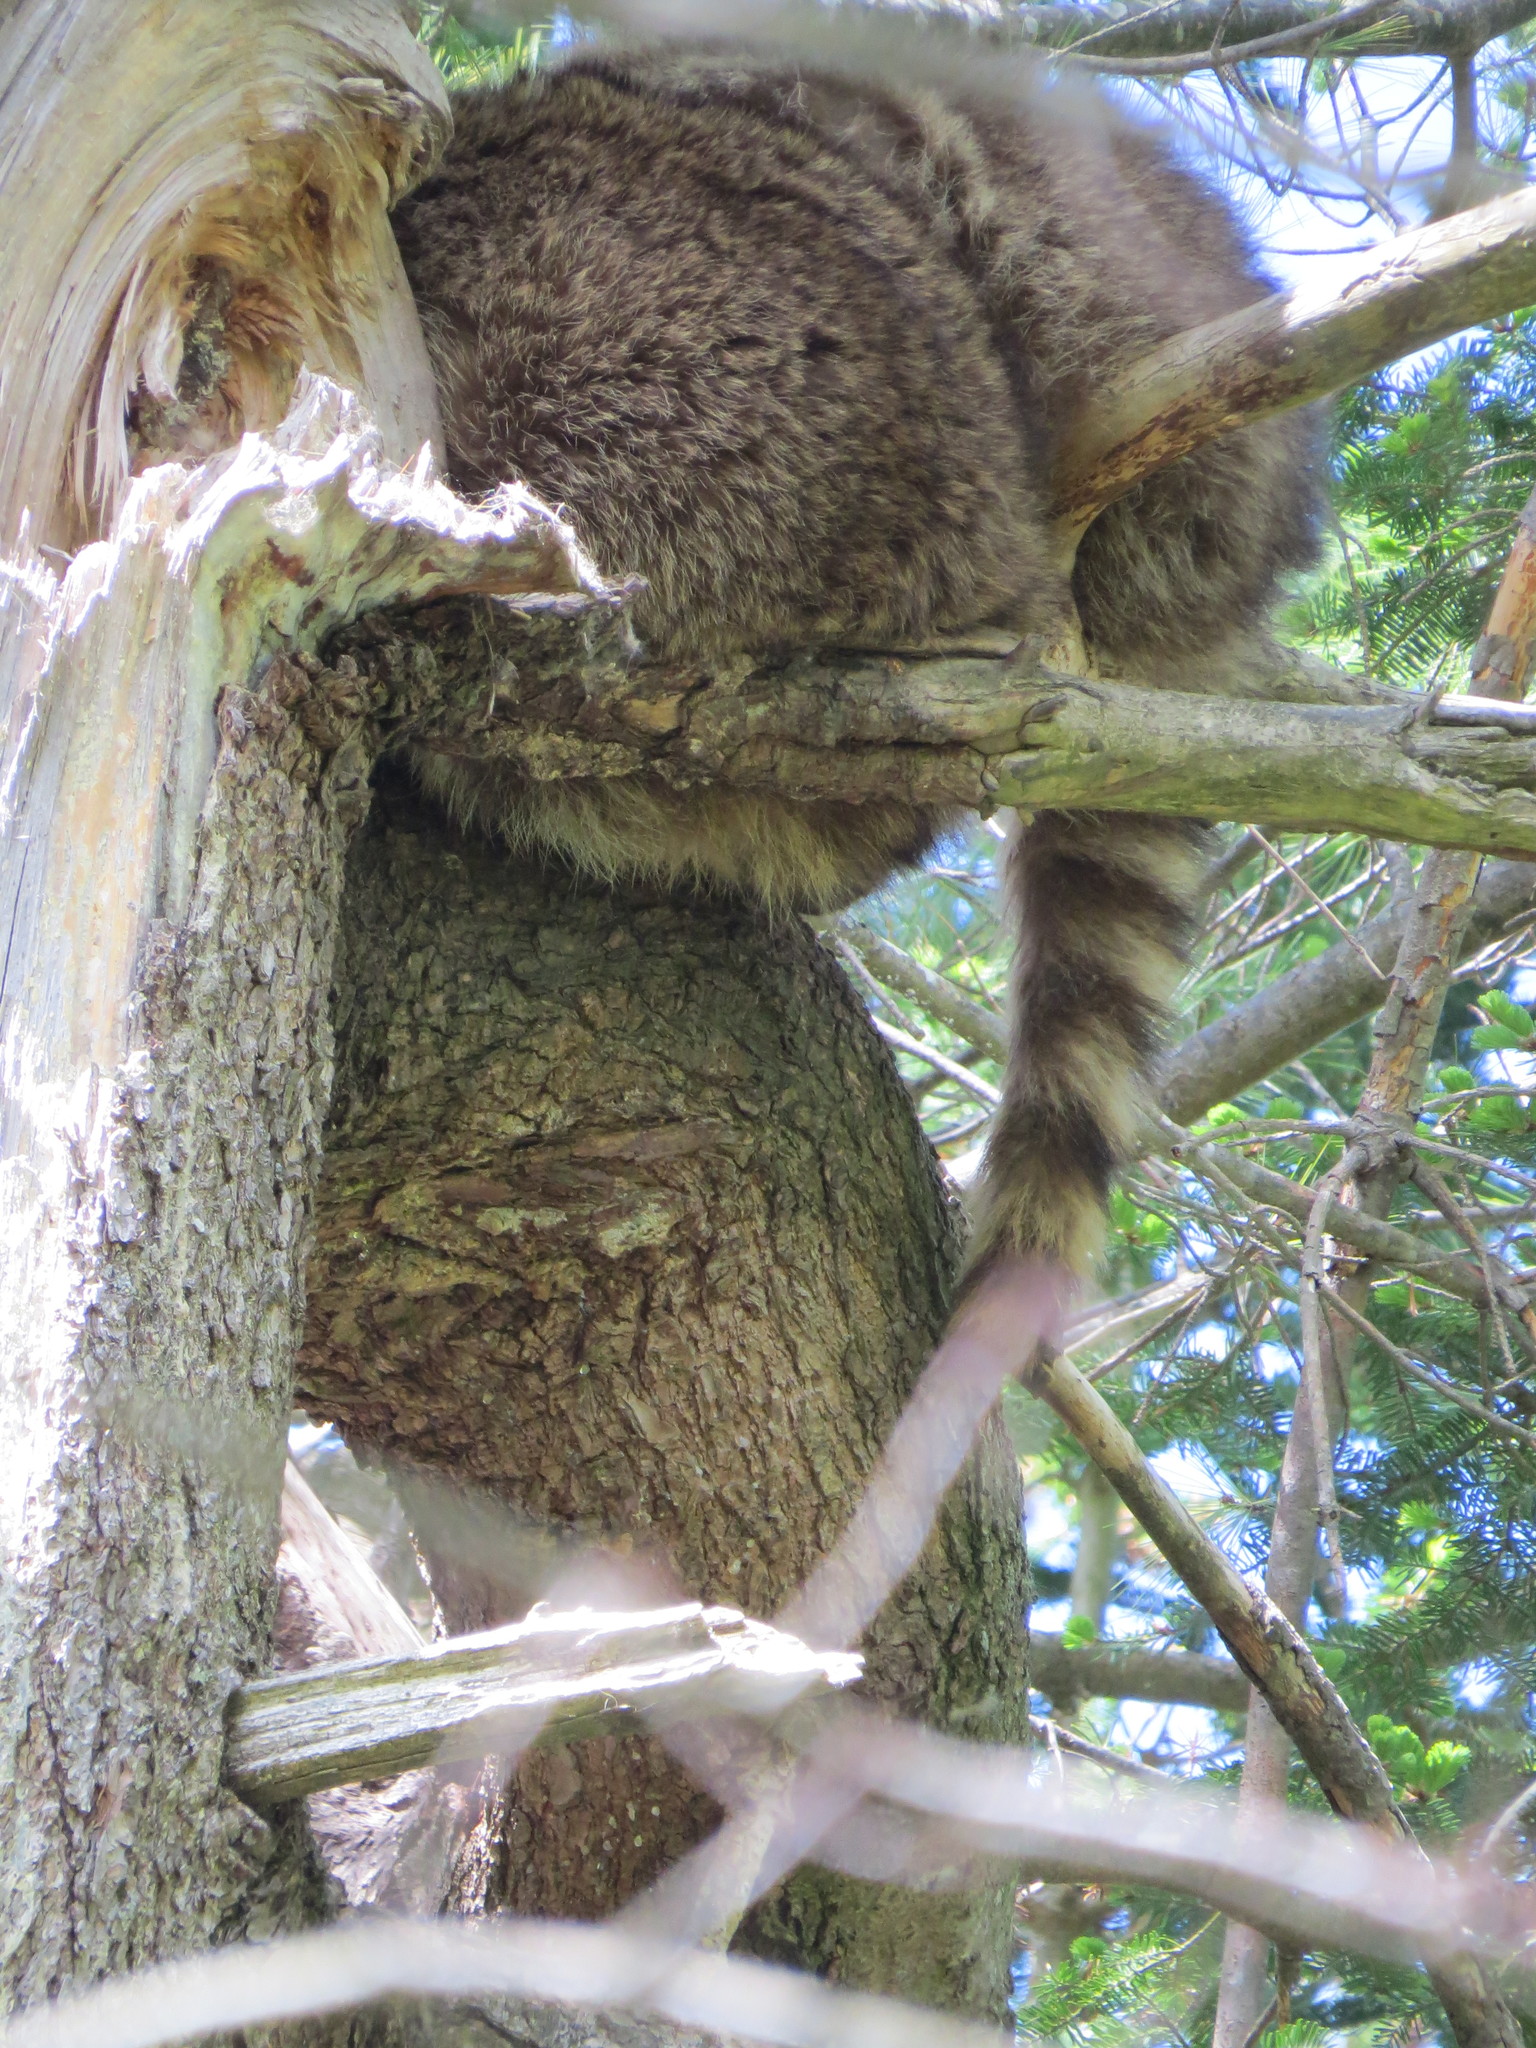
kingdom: Animalia
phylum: Chordata
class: Mammalia
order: Carnivora
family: Procyonidae
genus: Procyon
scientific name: Procyon lotor
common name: Raccoon
